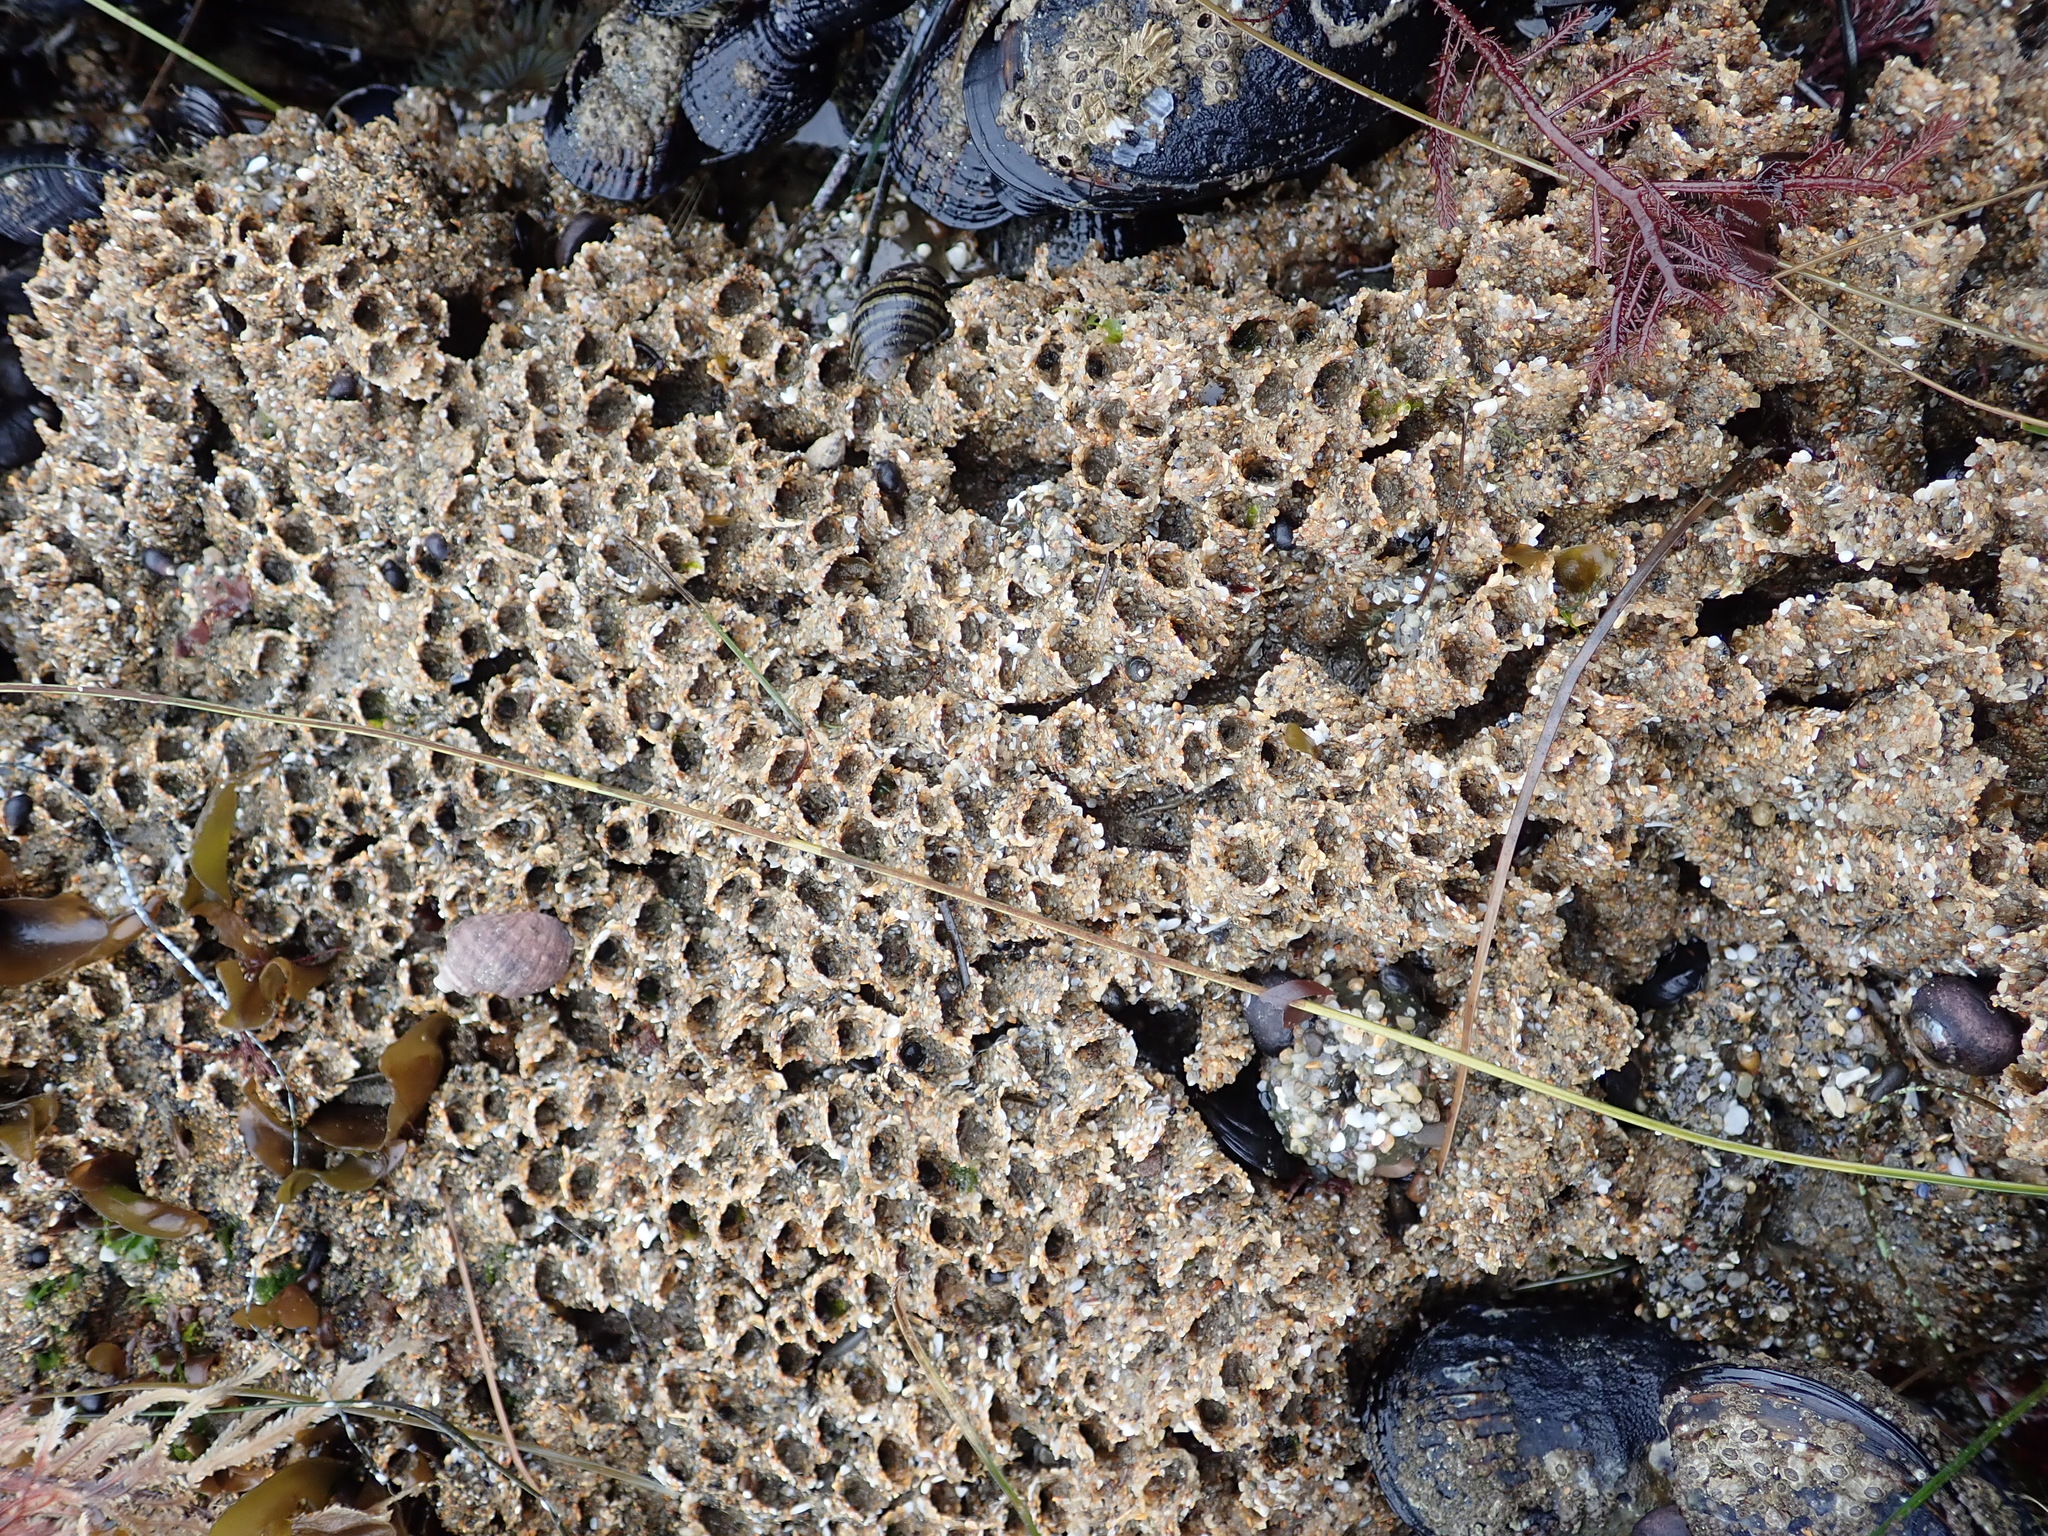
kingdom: Animalia
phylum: Annelida
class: Polychaeta
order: Sabellida
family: Sabellariidae
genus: Phragmatopoma
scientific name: Phragmatopoma californica
